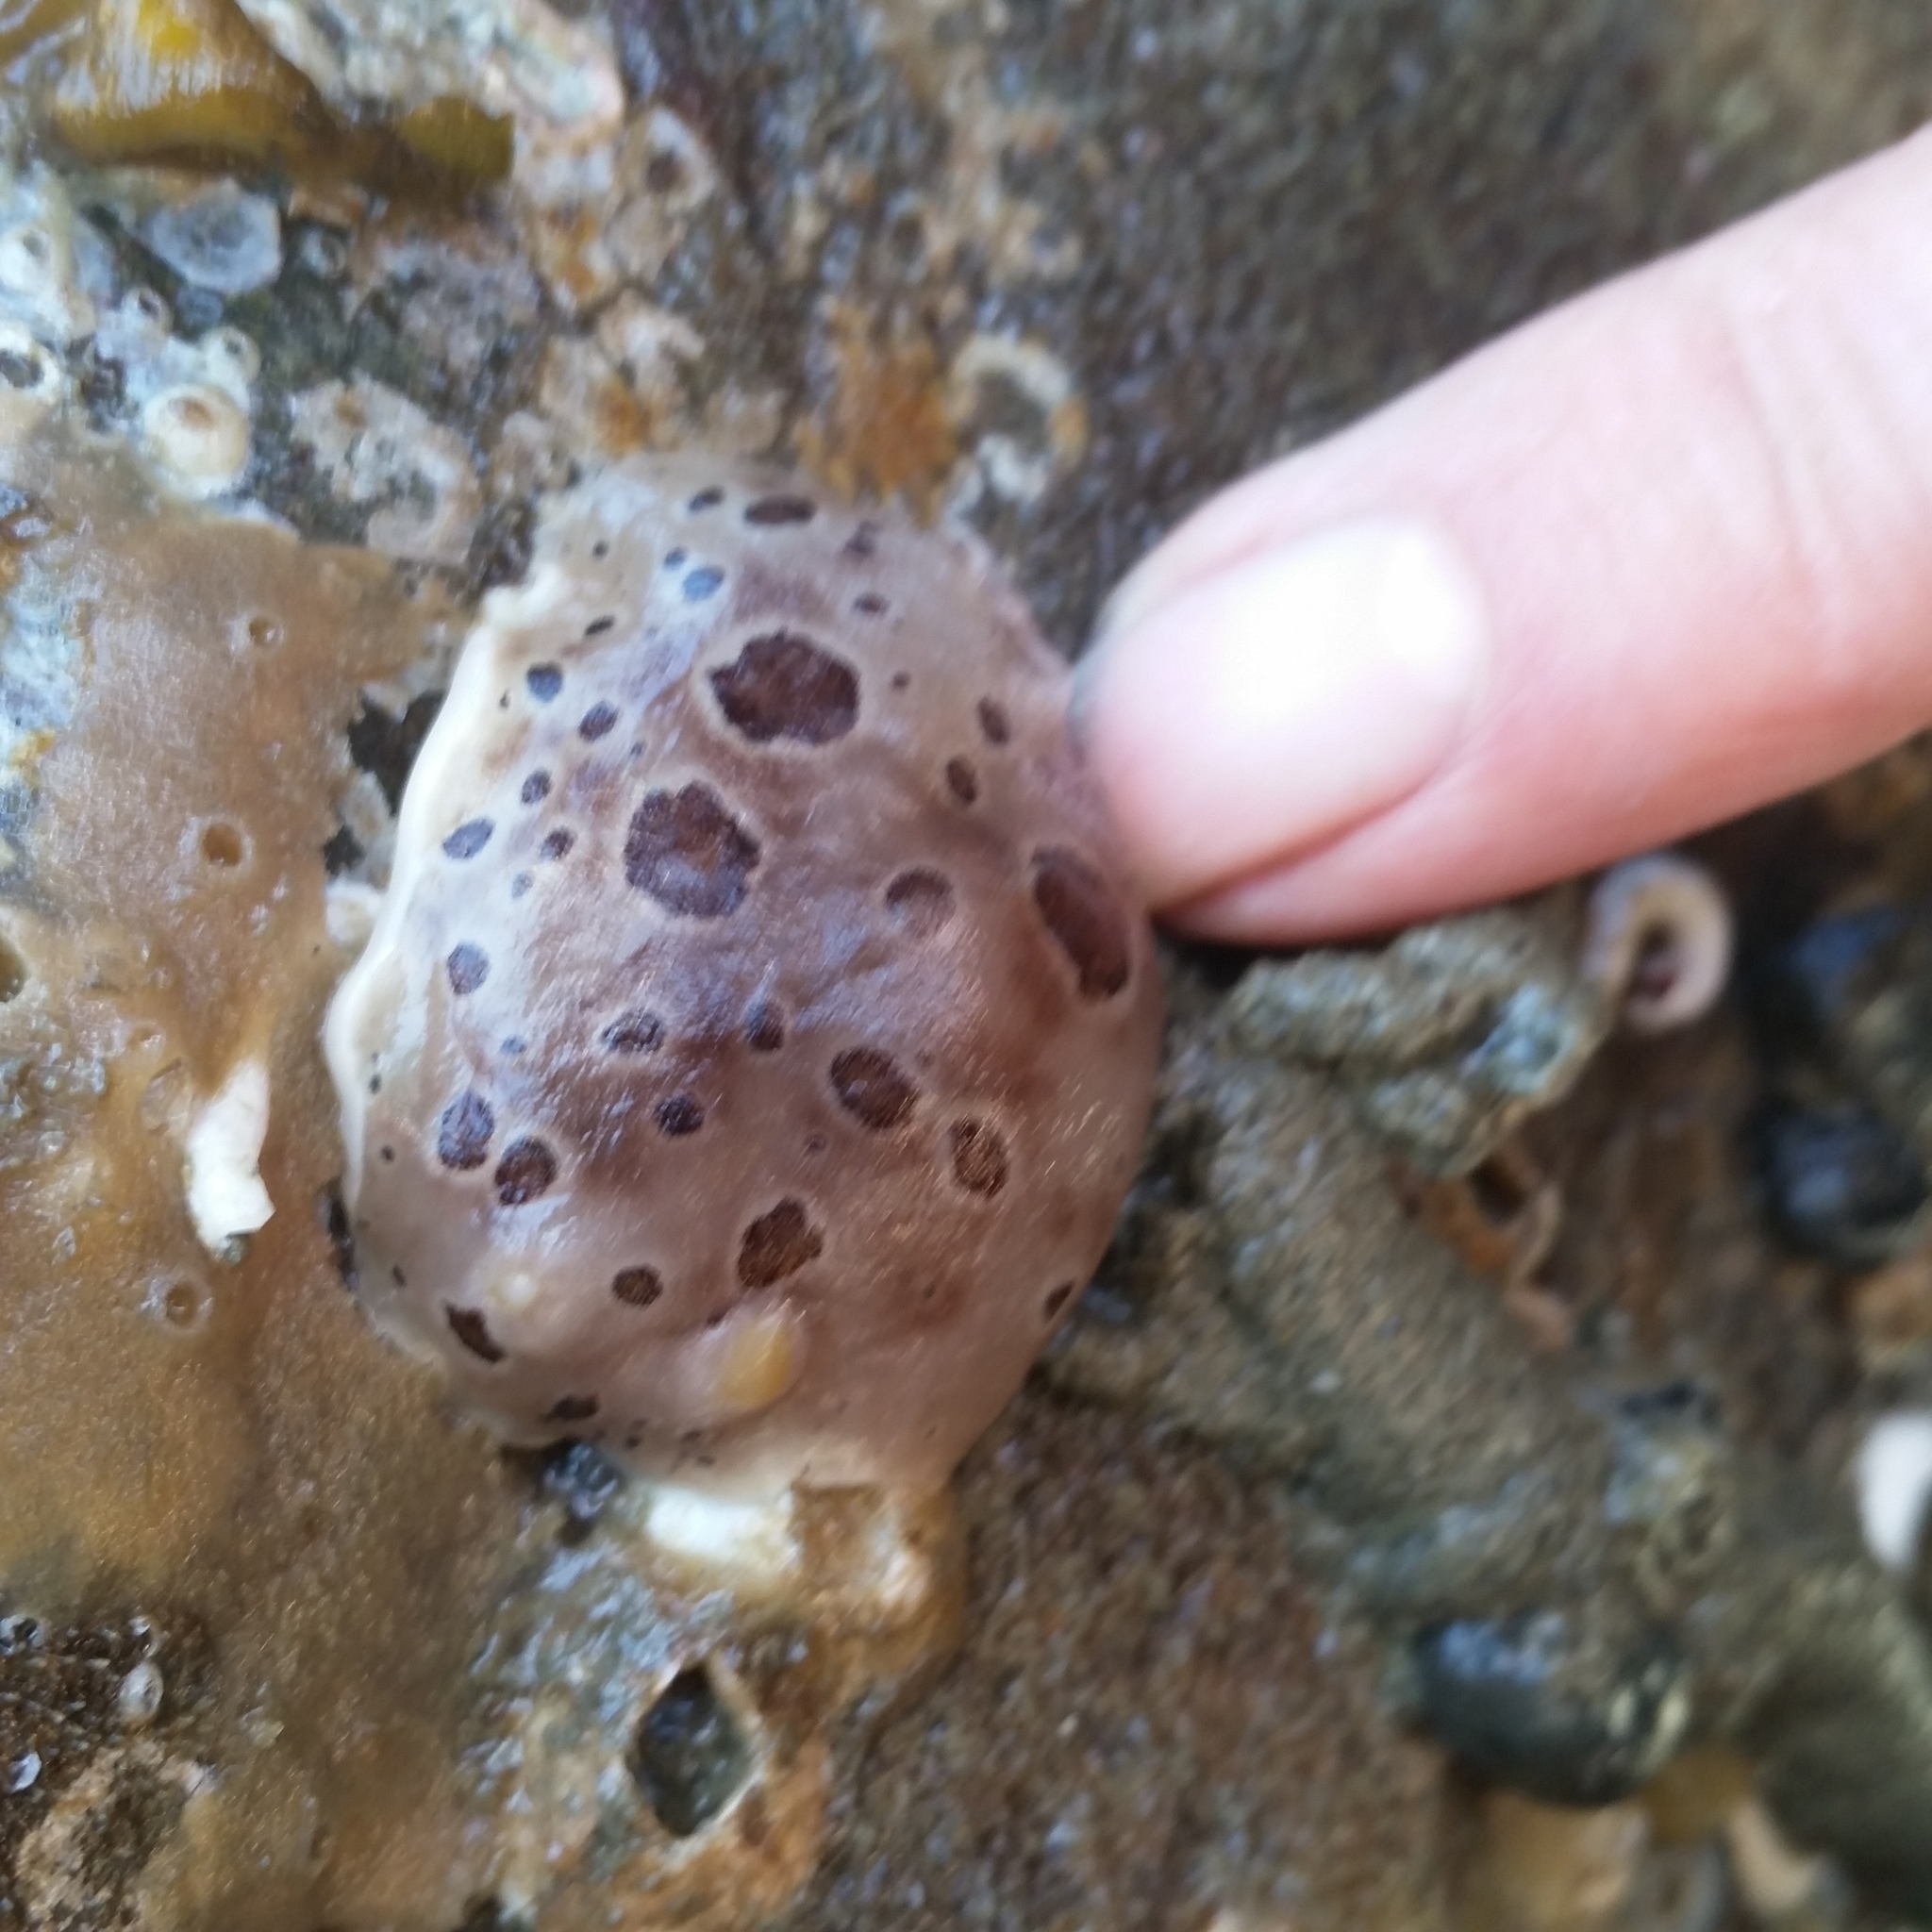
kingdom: Animalia
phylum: Mollusca
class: Gastropoda
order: Nudibranchia
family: Discodorididae
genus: Diaulula
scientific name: Diaulula odonoghuei
